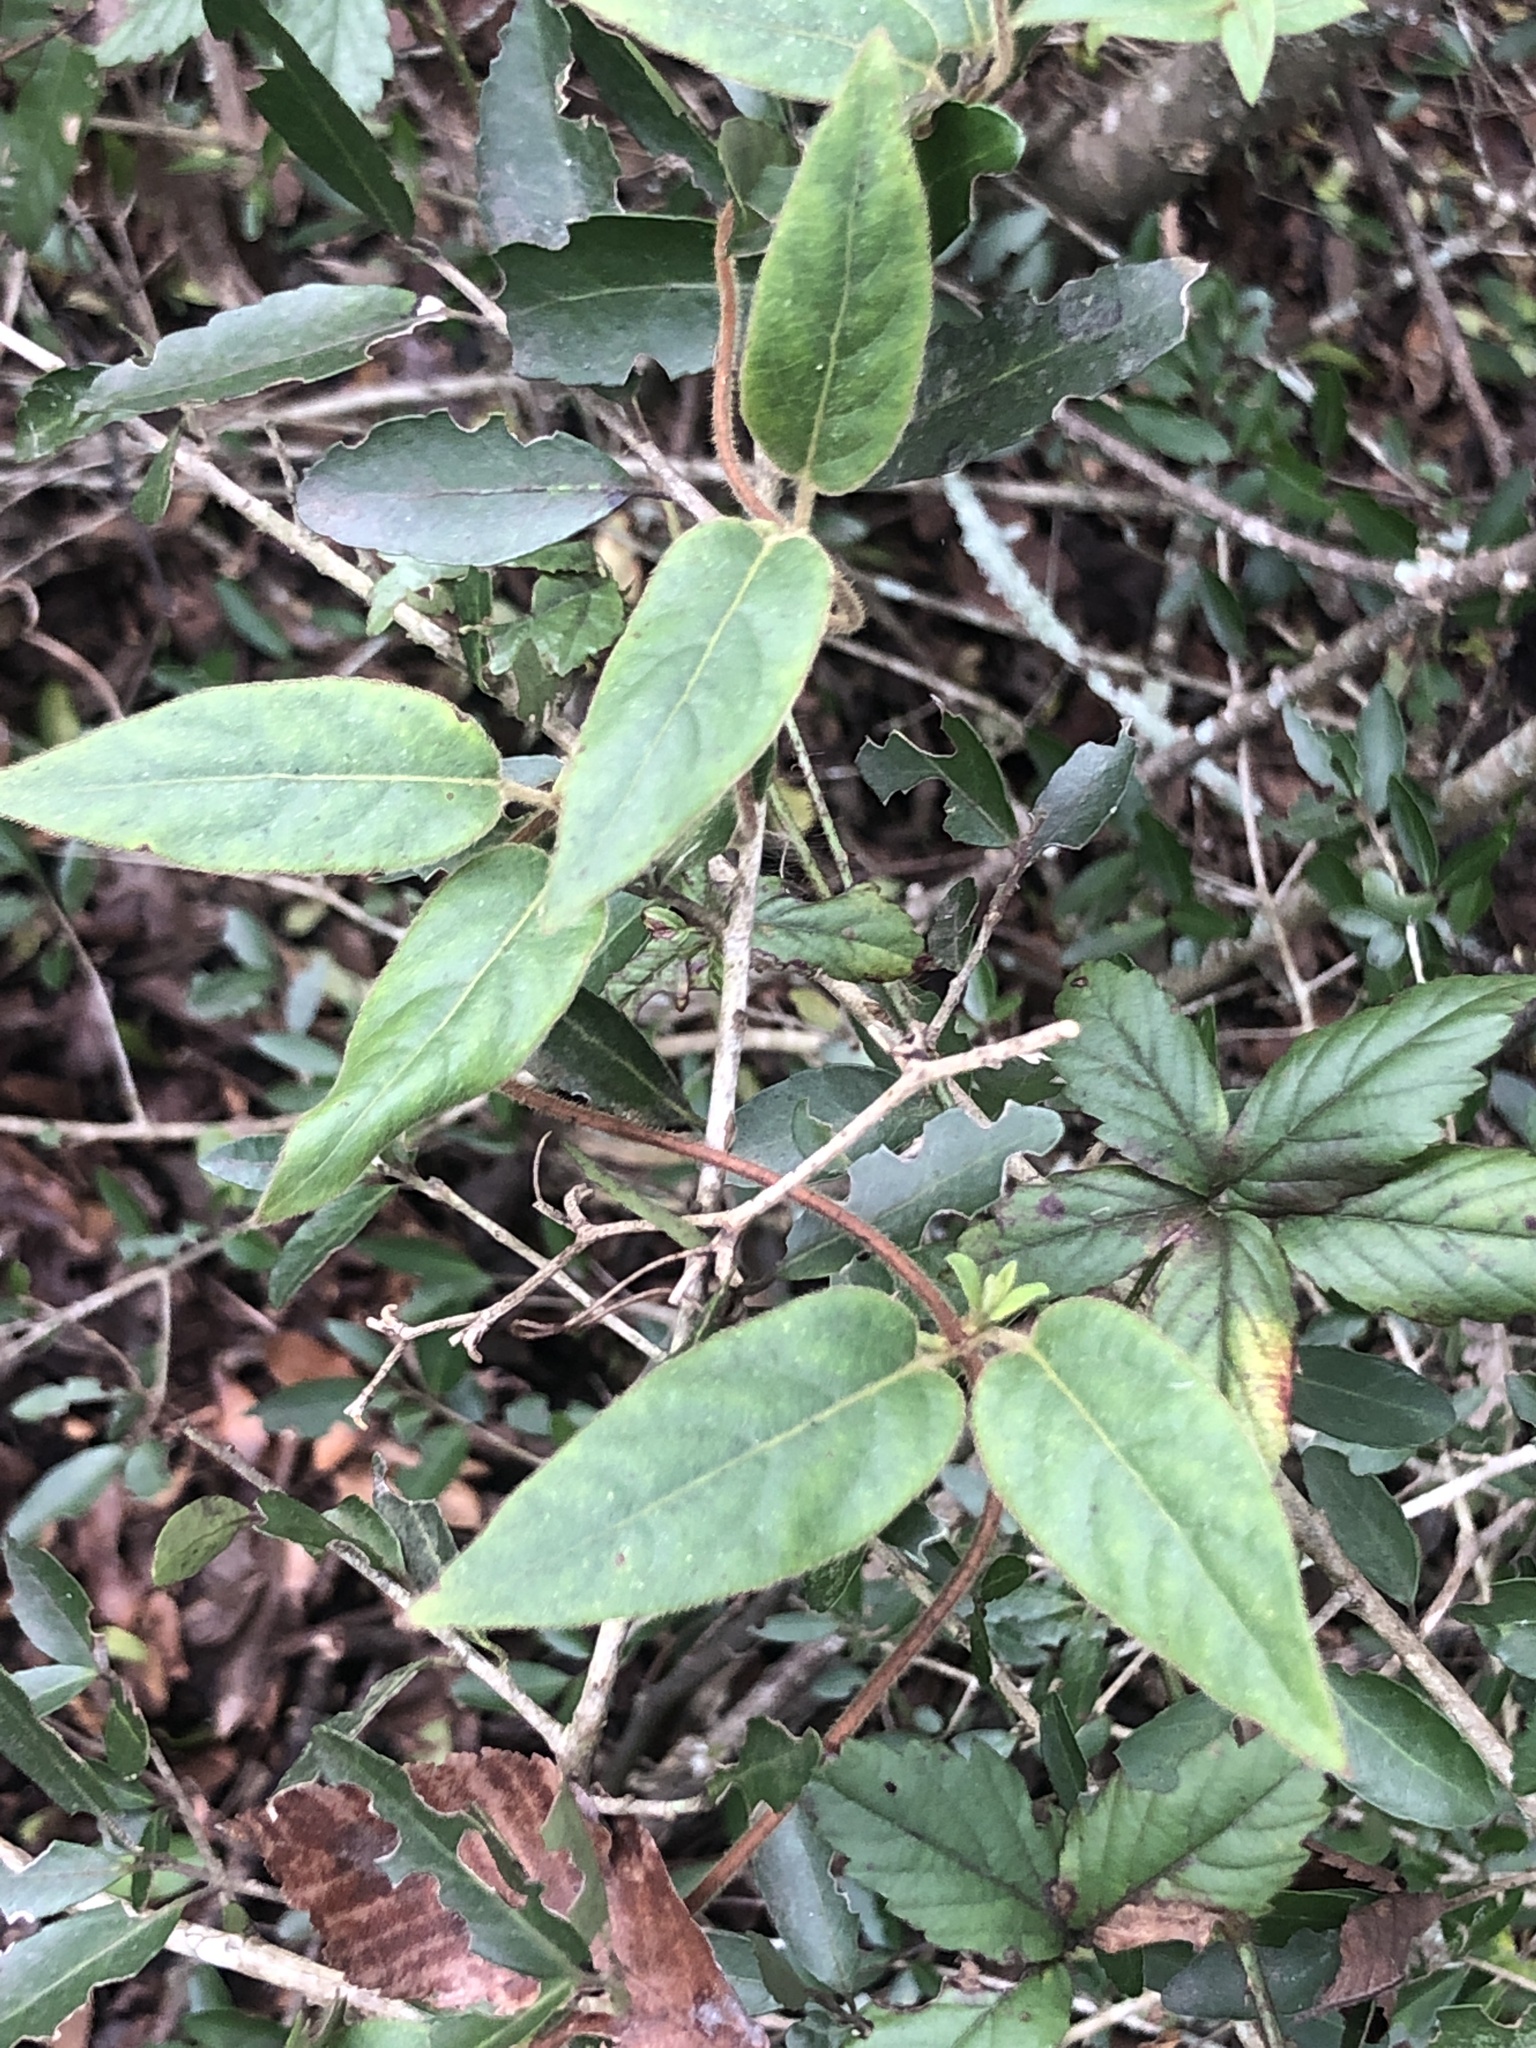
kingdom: Plantae
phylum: Tracheophyta
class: Magnoliopsida
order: Dipsacales
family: Caprifoliaceae
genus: Lonicera
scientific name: Lonicera japonica
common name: Japanese honeysuckle
